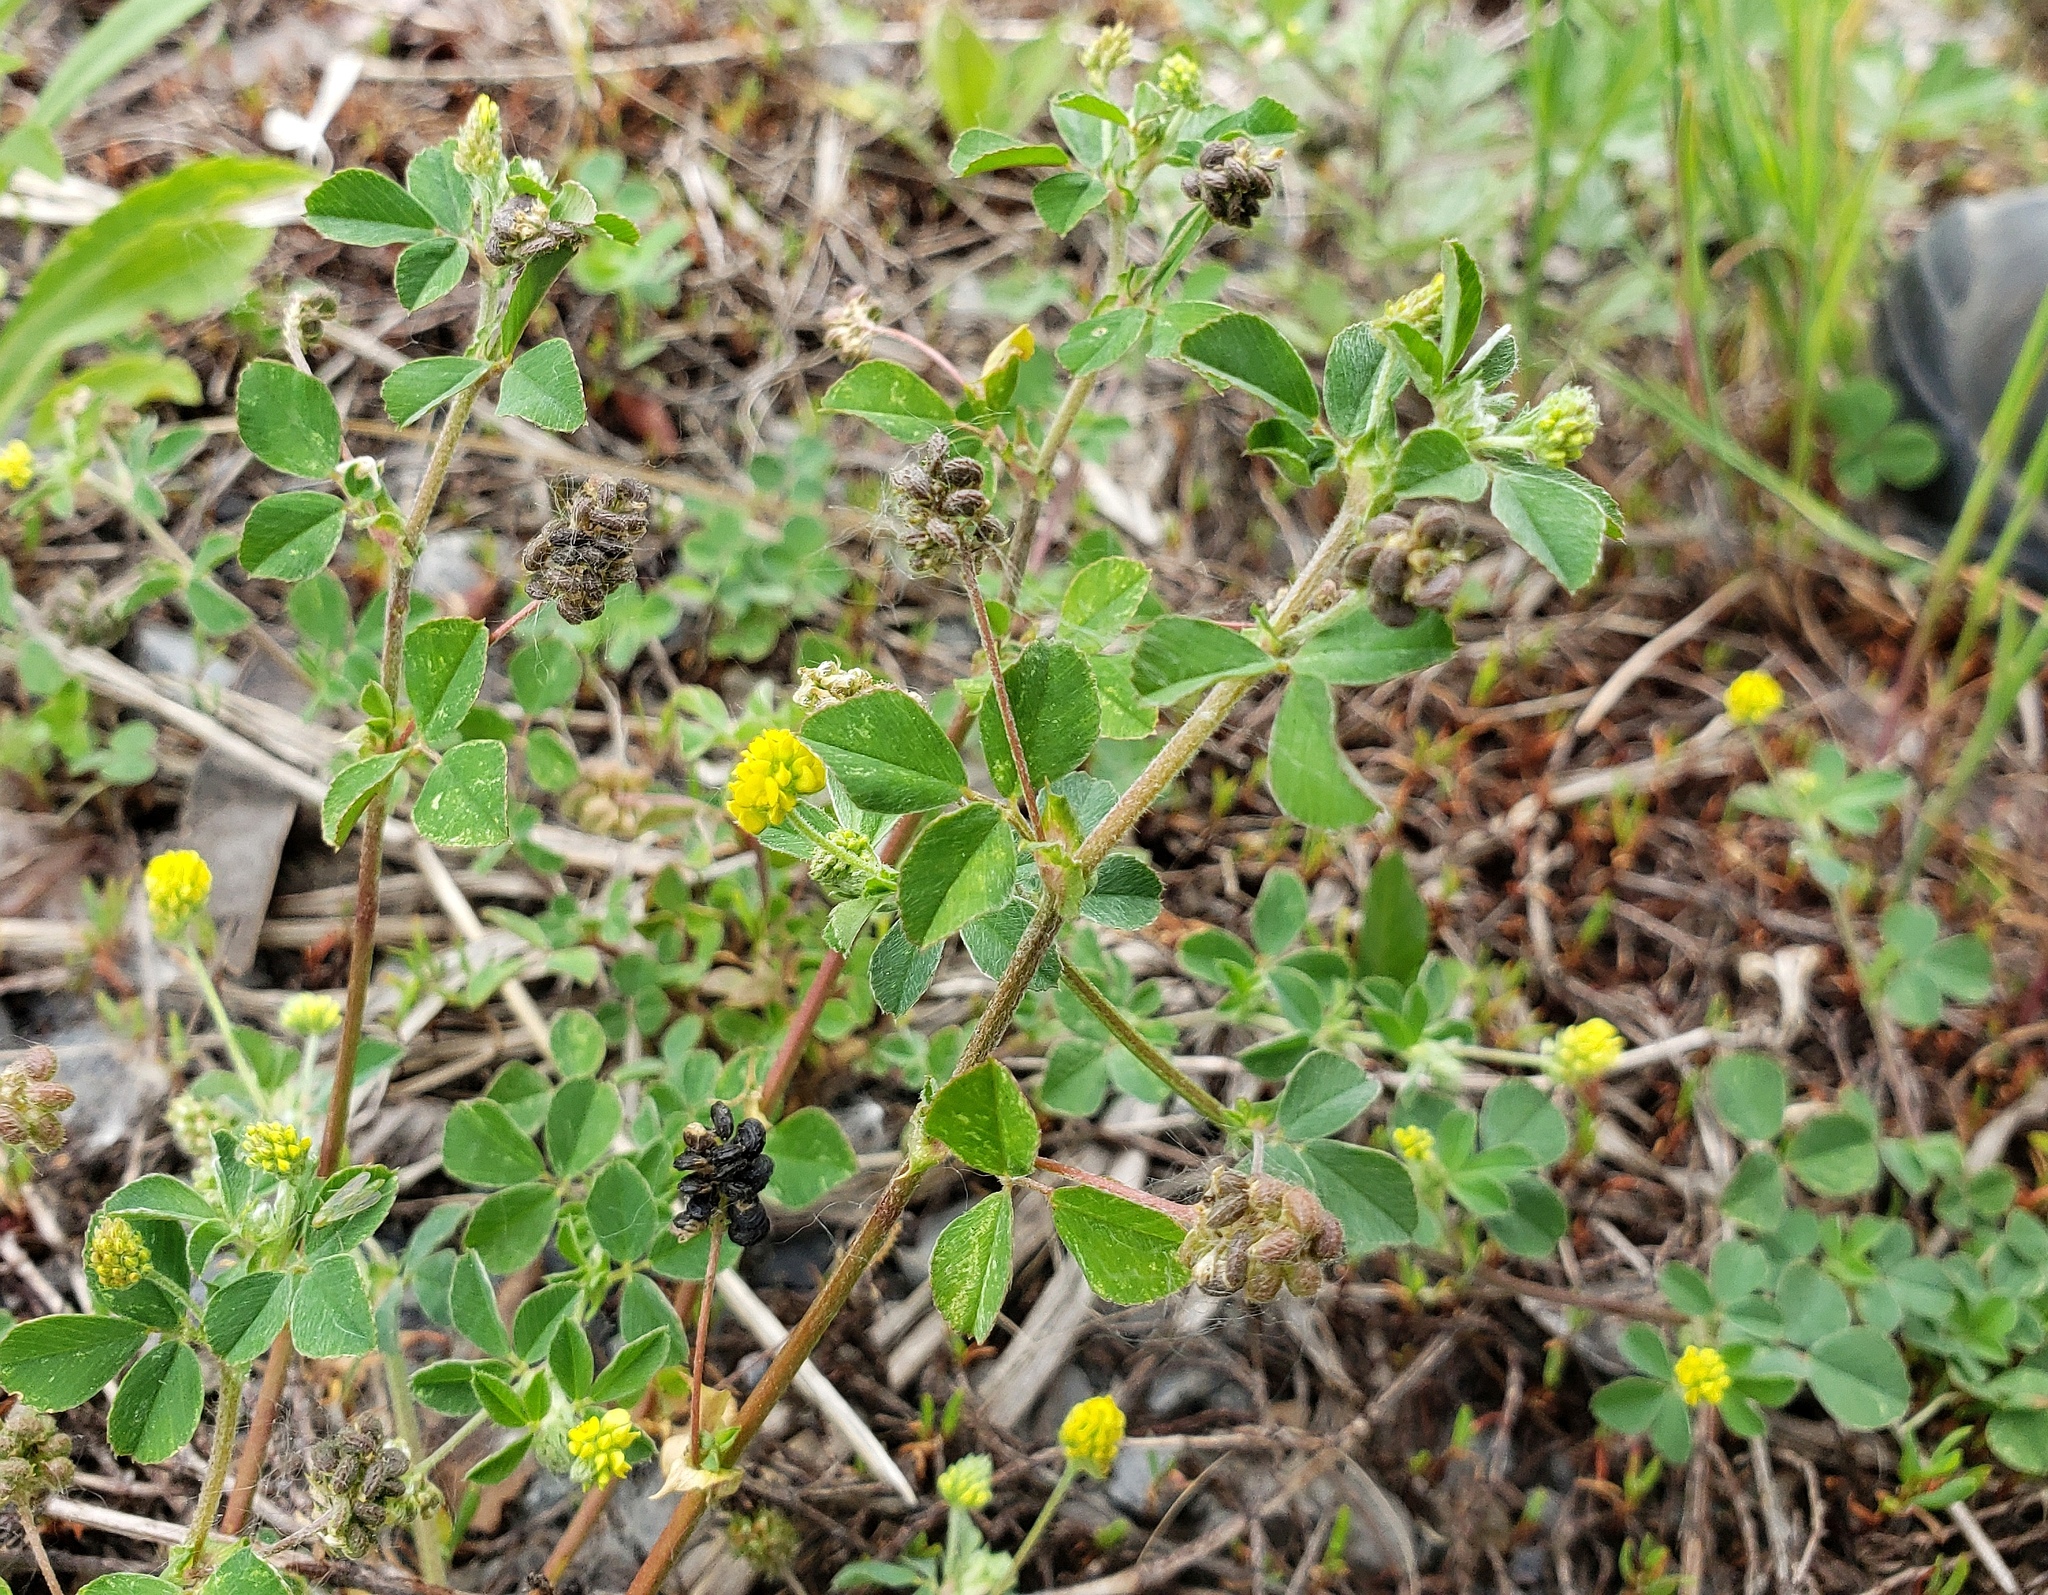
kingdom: Plantae
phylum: Tracheophyta
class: Magnoliopsida
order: Fabales
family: Fabaceae
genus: Medicago
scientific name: Medicago lupulina
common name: Black medick
